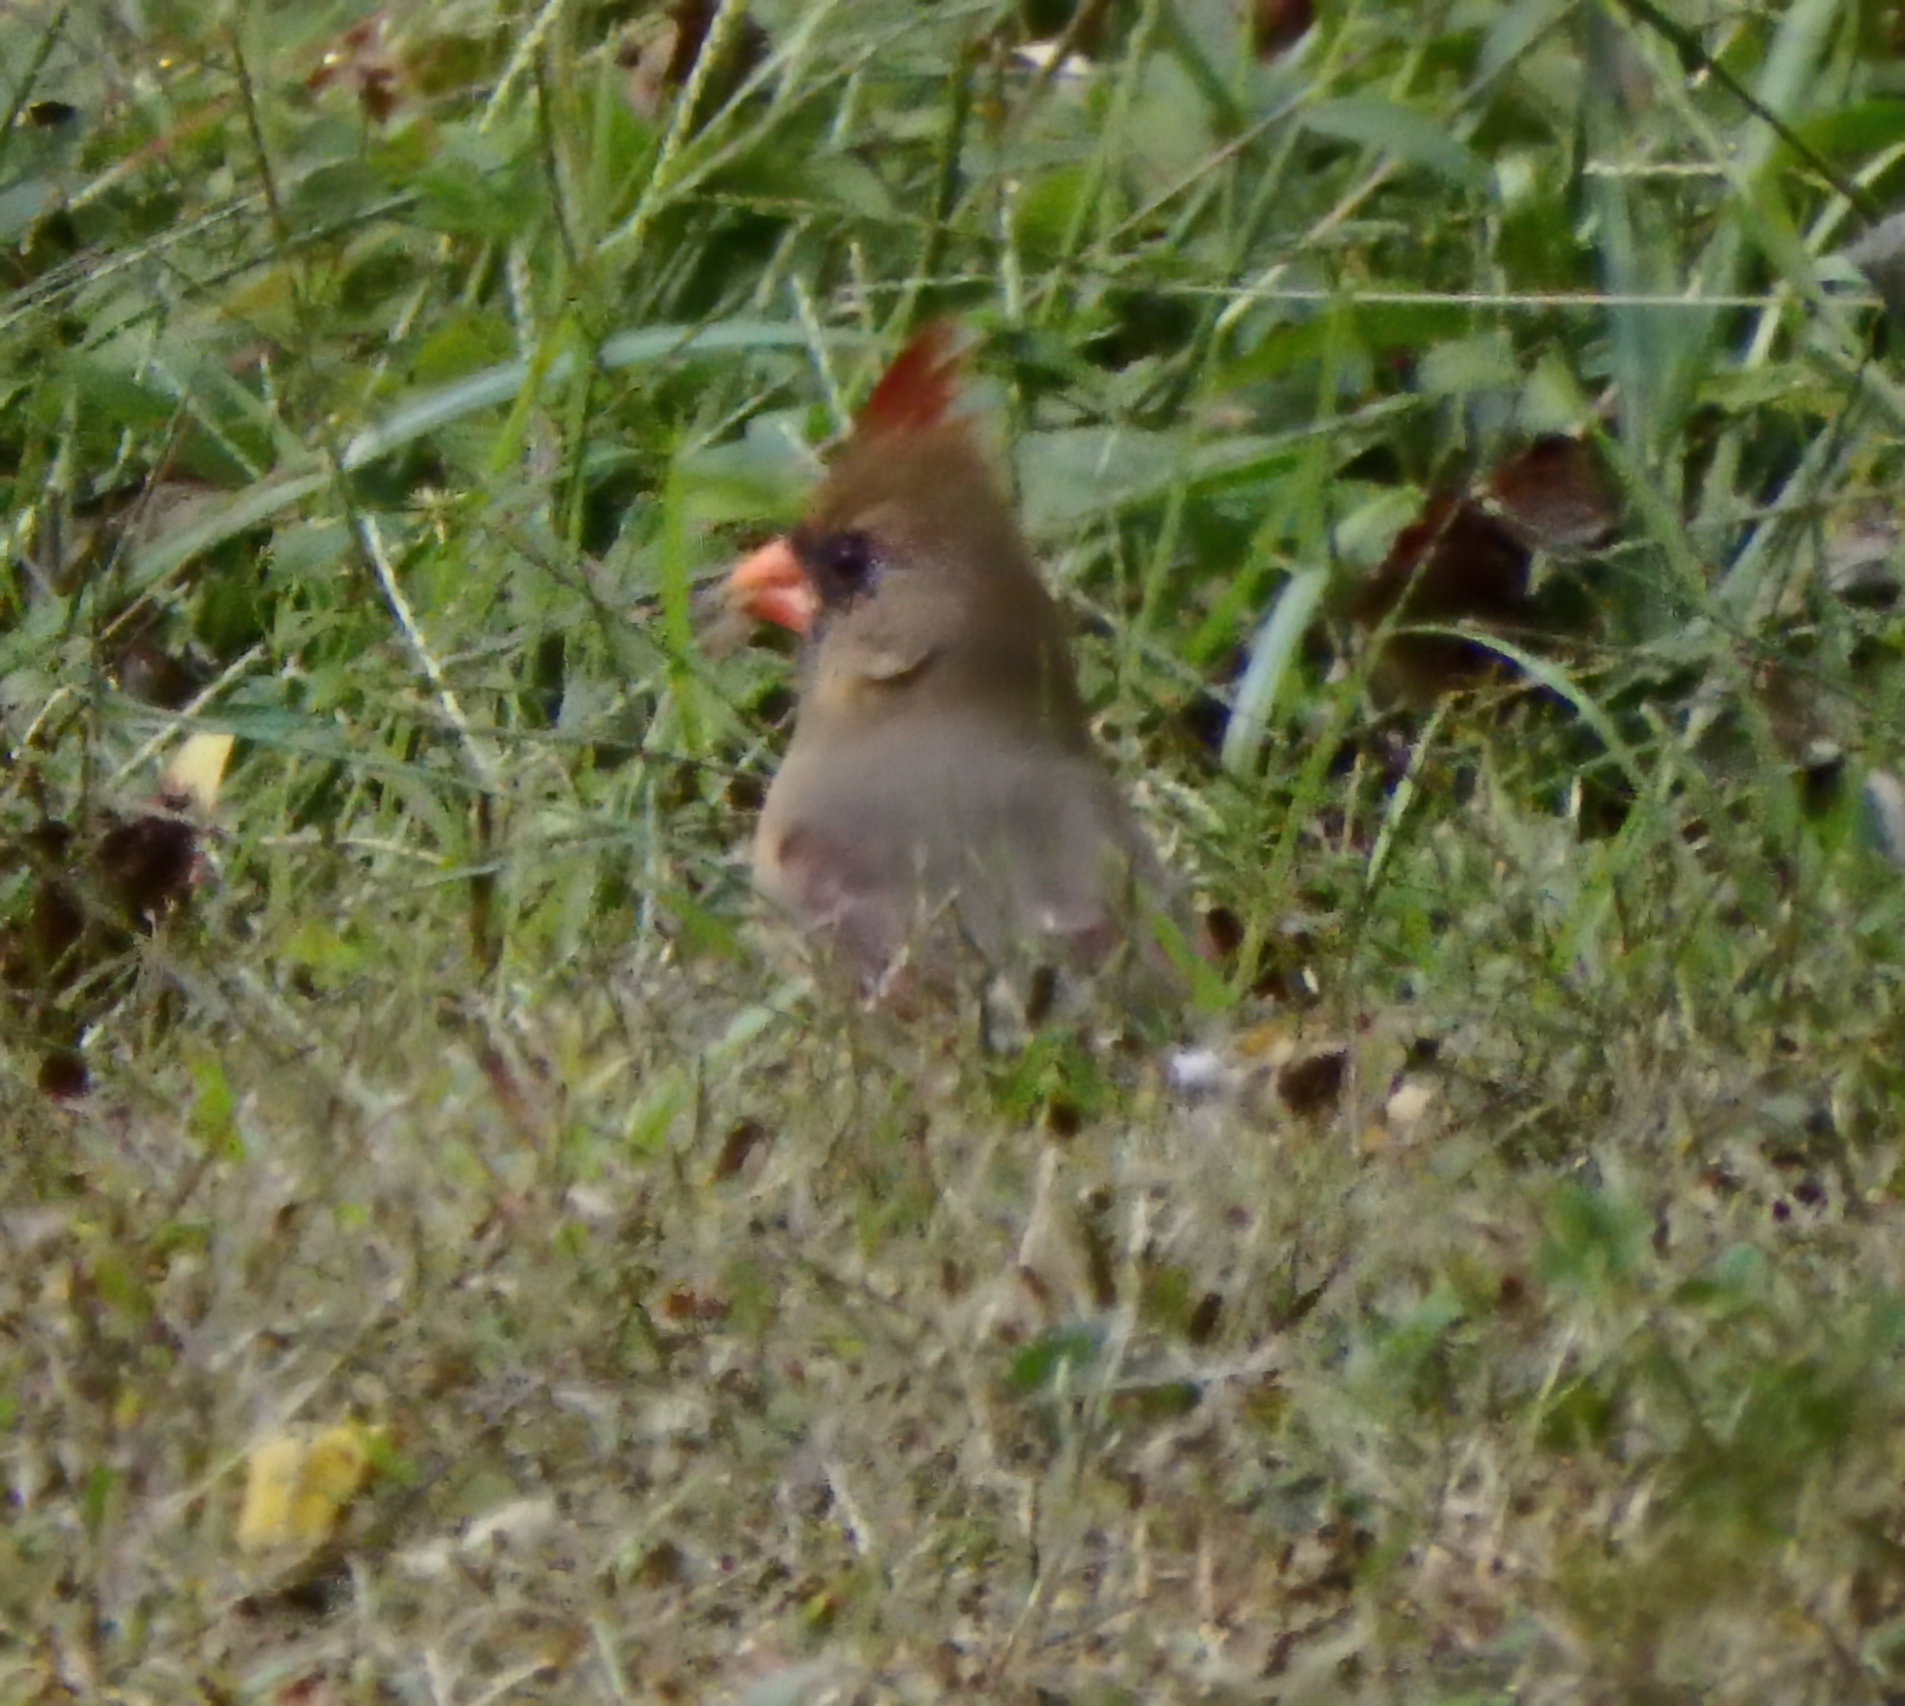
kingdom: Animalia
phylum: Chordata
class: Aves
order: Passeriformes
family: Cardinalidae
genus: Cardinalis
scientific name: Cardinalis cardinalis
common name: Northern cardinal
